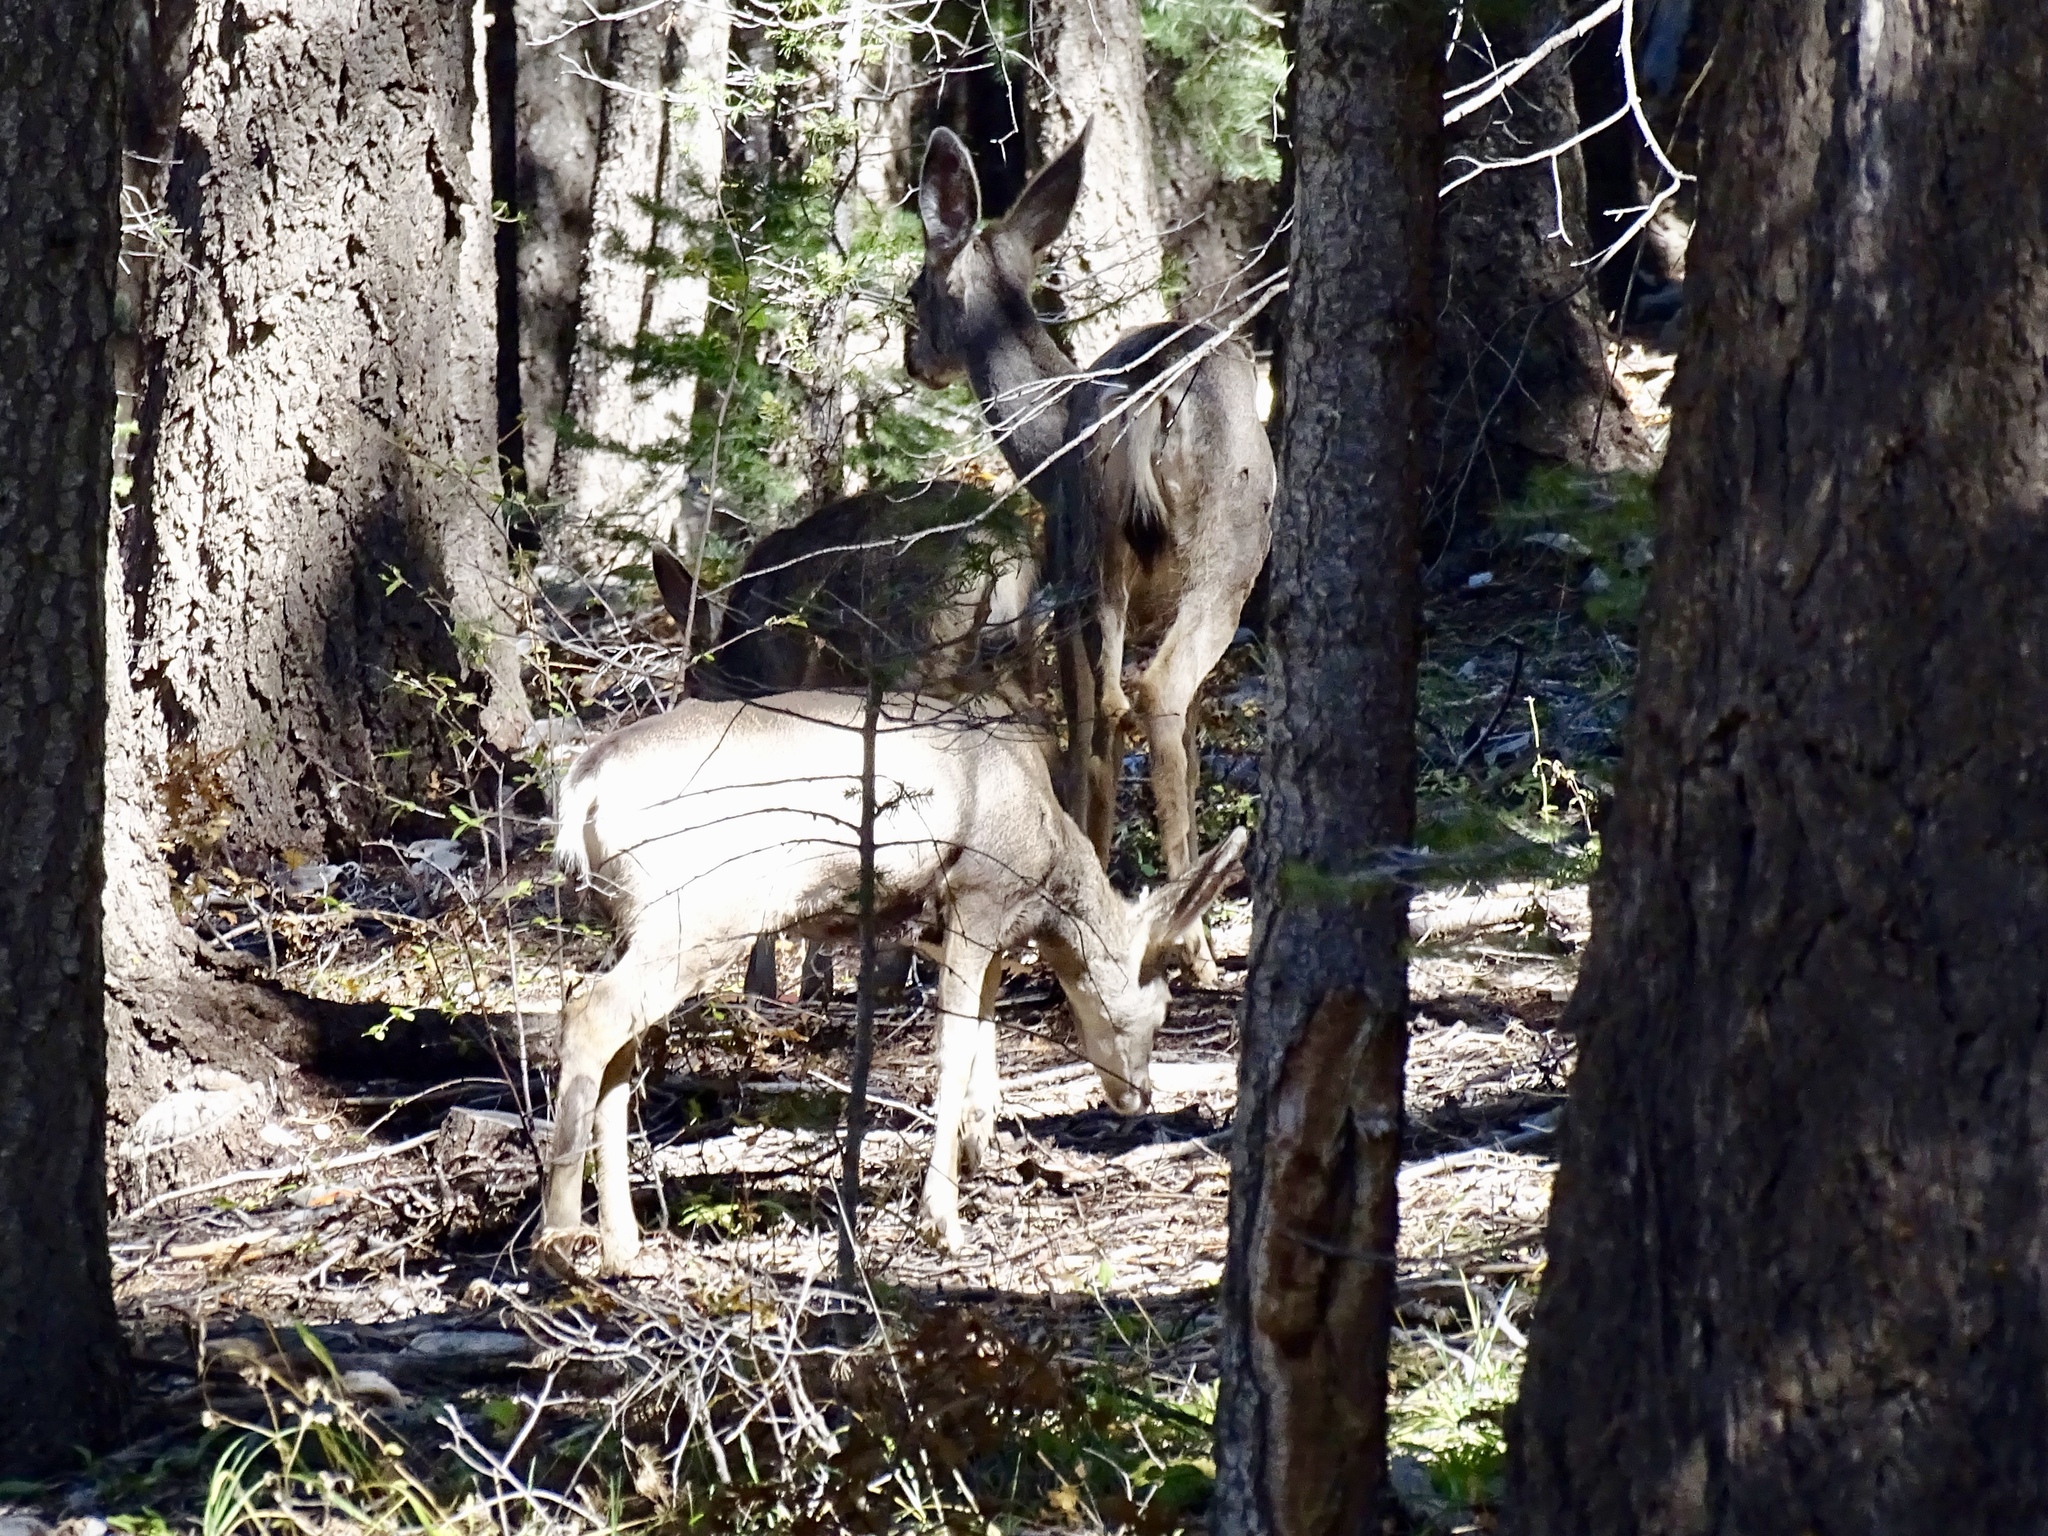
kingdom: Animalia
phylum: Chordata
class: Mammalia
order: Artiodactyla
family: Cervidae
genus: Odocoileus
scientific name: Odocoileus hemionus
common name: Mule deer
